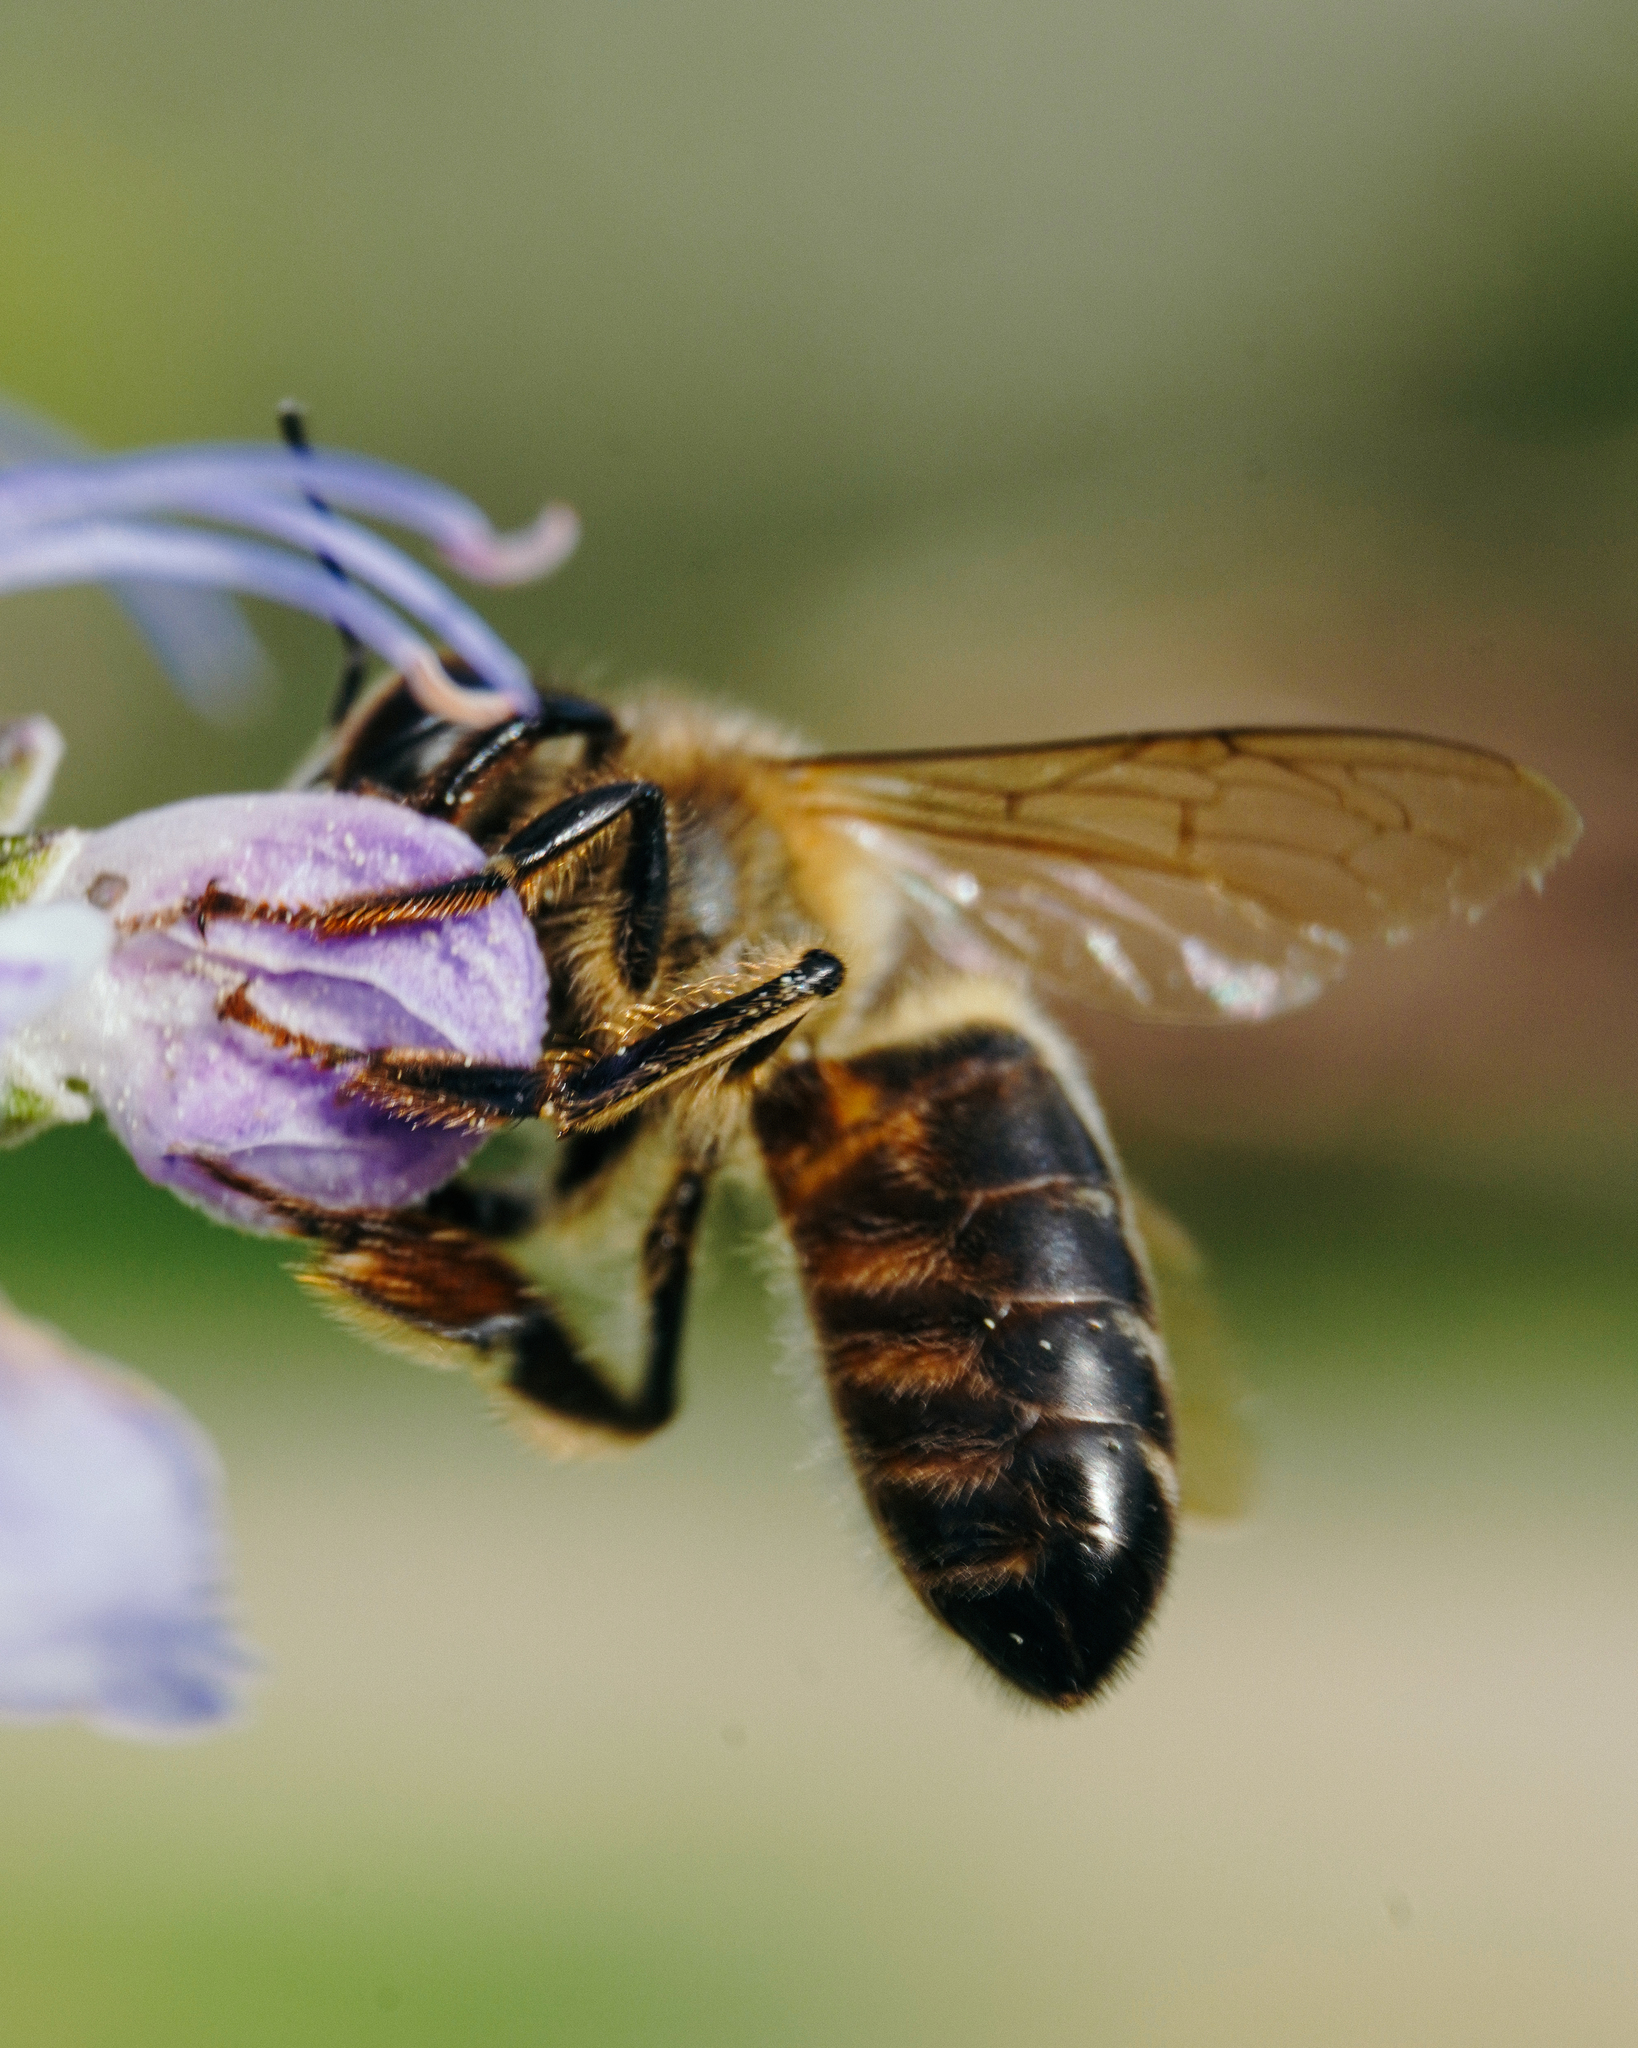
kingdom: Animalia
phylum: Arthropoda
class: Insecta
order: Hymenoptera
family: Apidae
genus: Apis
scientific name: Apis mellifera
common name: Honey bee
